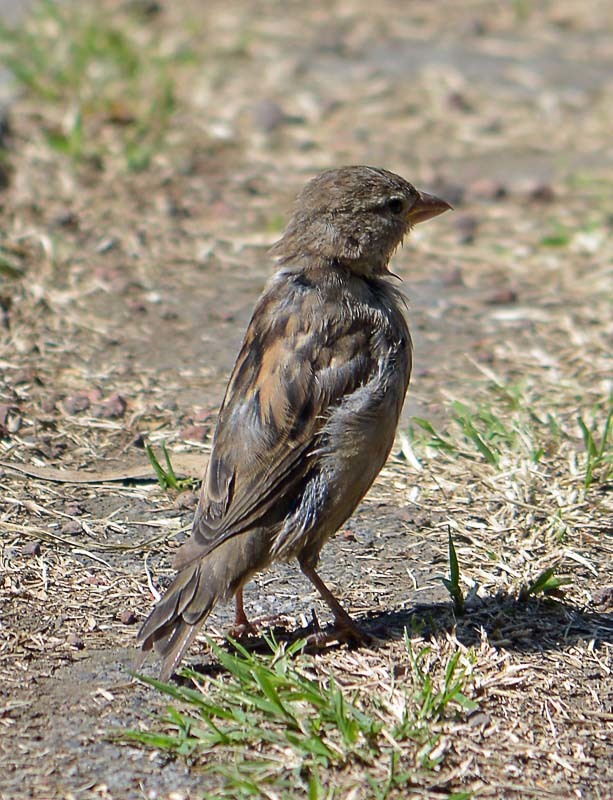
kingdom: Animalia
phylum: Chordata
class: Aves
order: Passeriformes
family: Passeridae
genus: Passer
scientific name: Passer domesticus
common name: House sparrow
